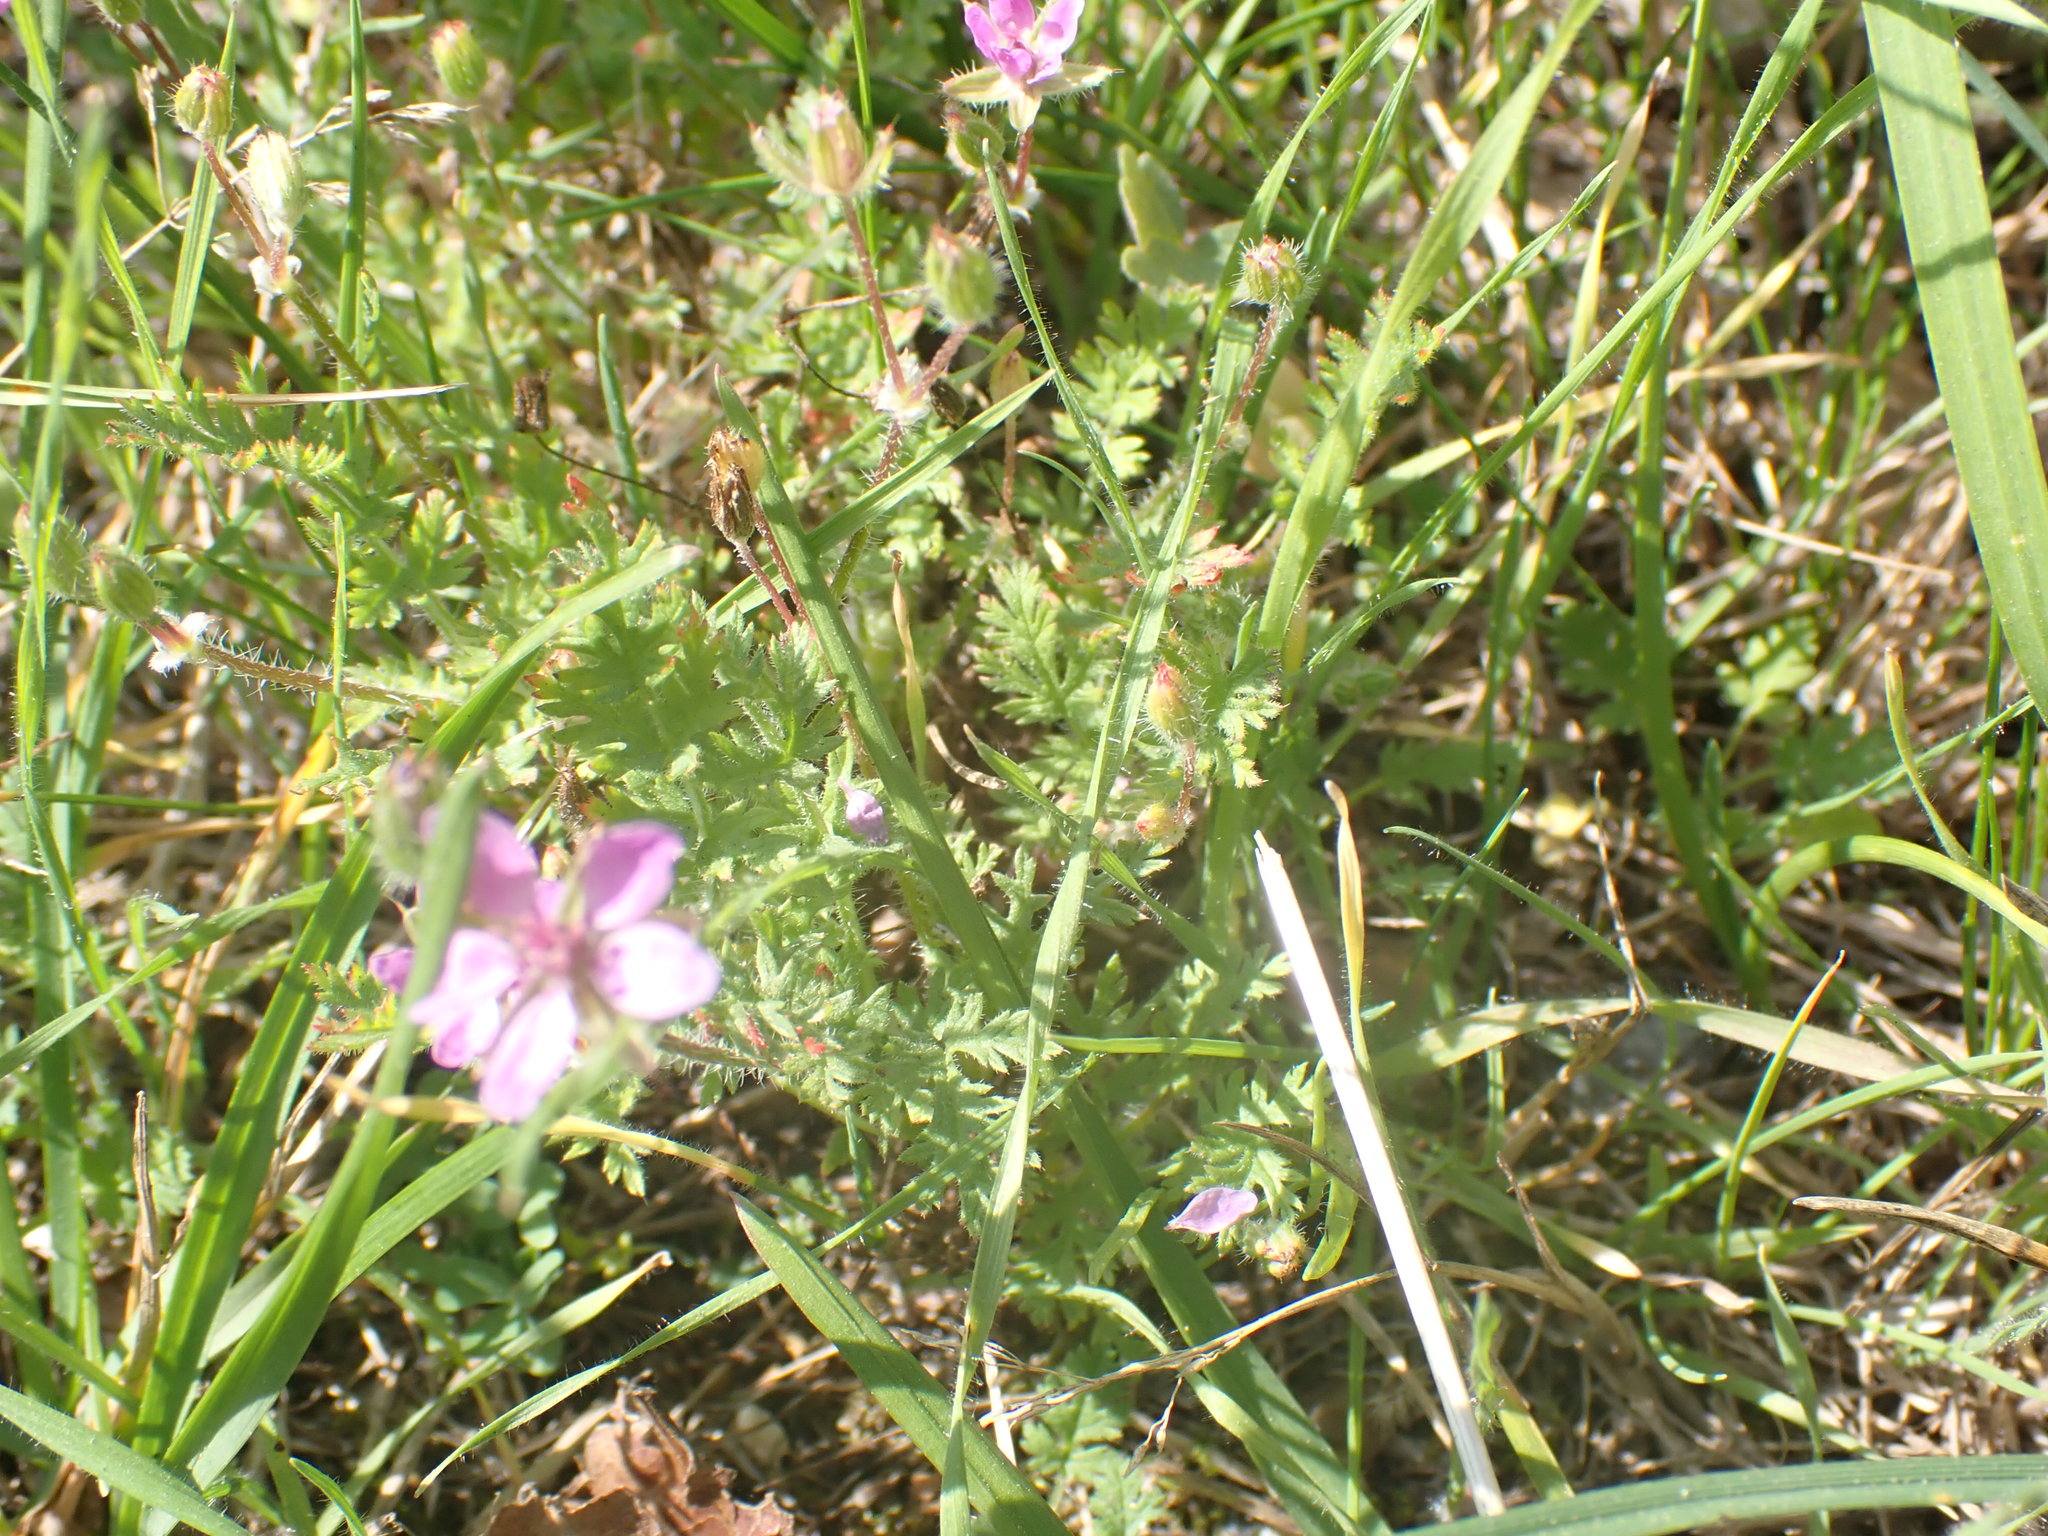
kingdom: Plantae
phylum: Tracheophyta
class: Magnoliopsida
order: Geraniales
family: Geraniaceae
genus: Erodium
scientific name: Erodium cicutarium
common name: Common stork's-bill
